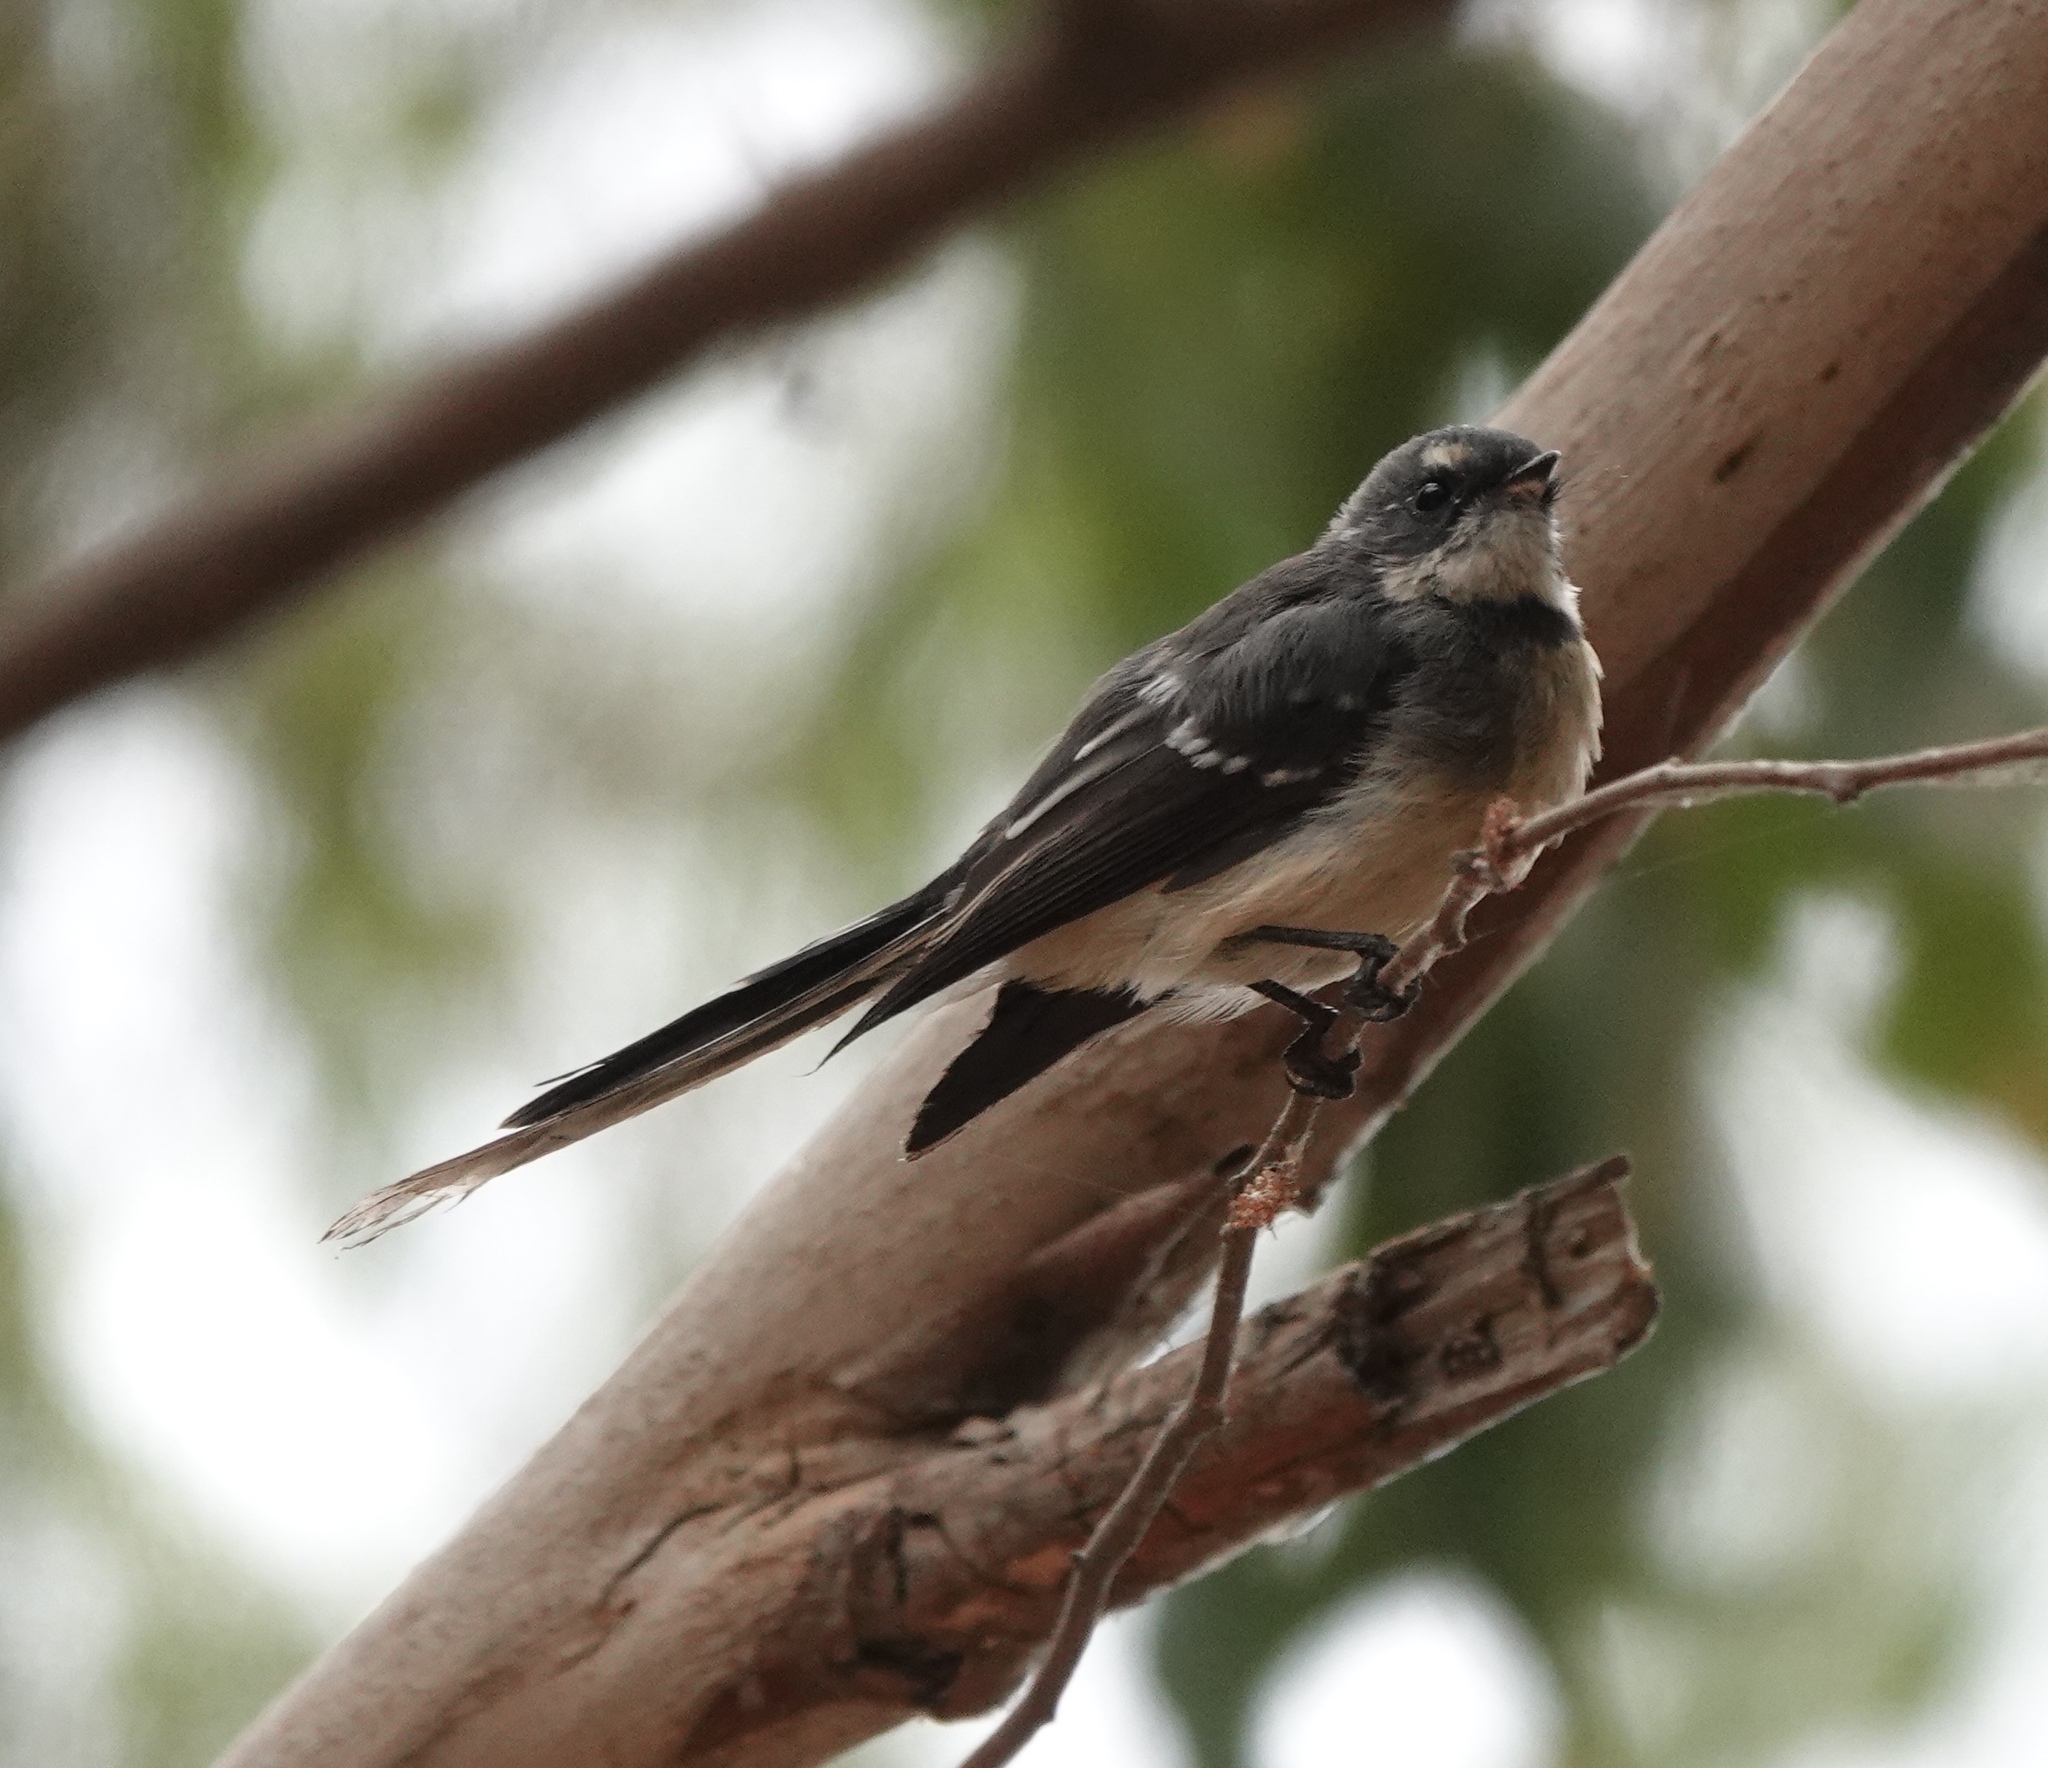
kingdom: Animalia
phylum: Chordata
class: Aves
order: Passeriformes
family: Rhipiduridae
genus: Rhipidura
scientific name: Rhipidura albiscapa
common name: Grey fantail
